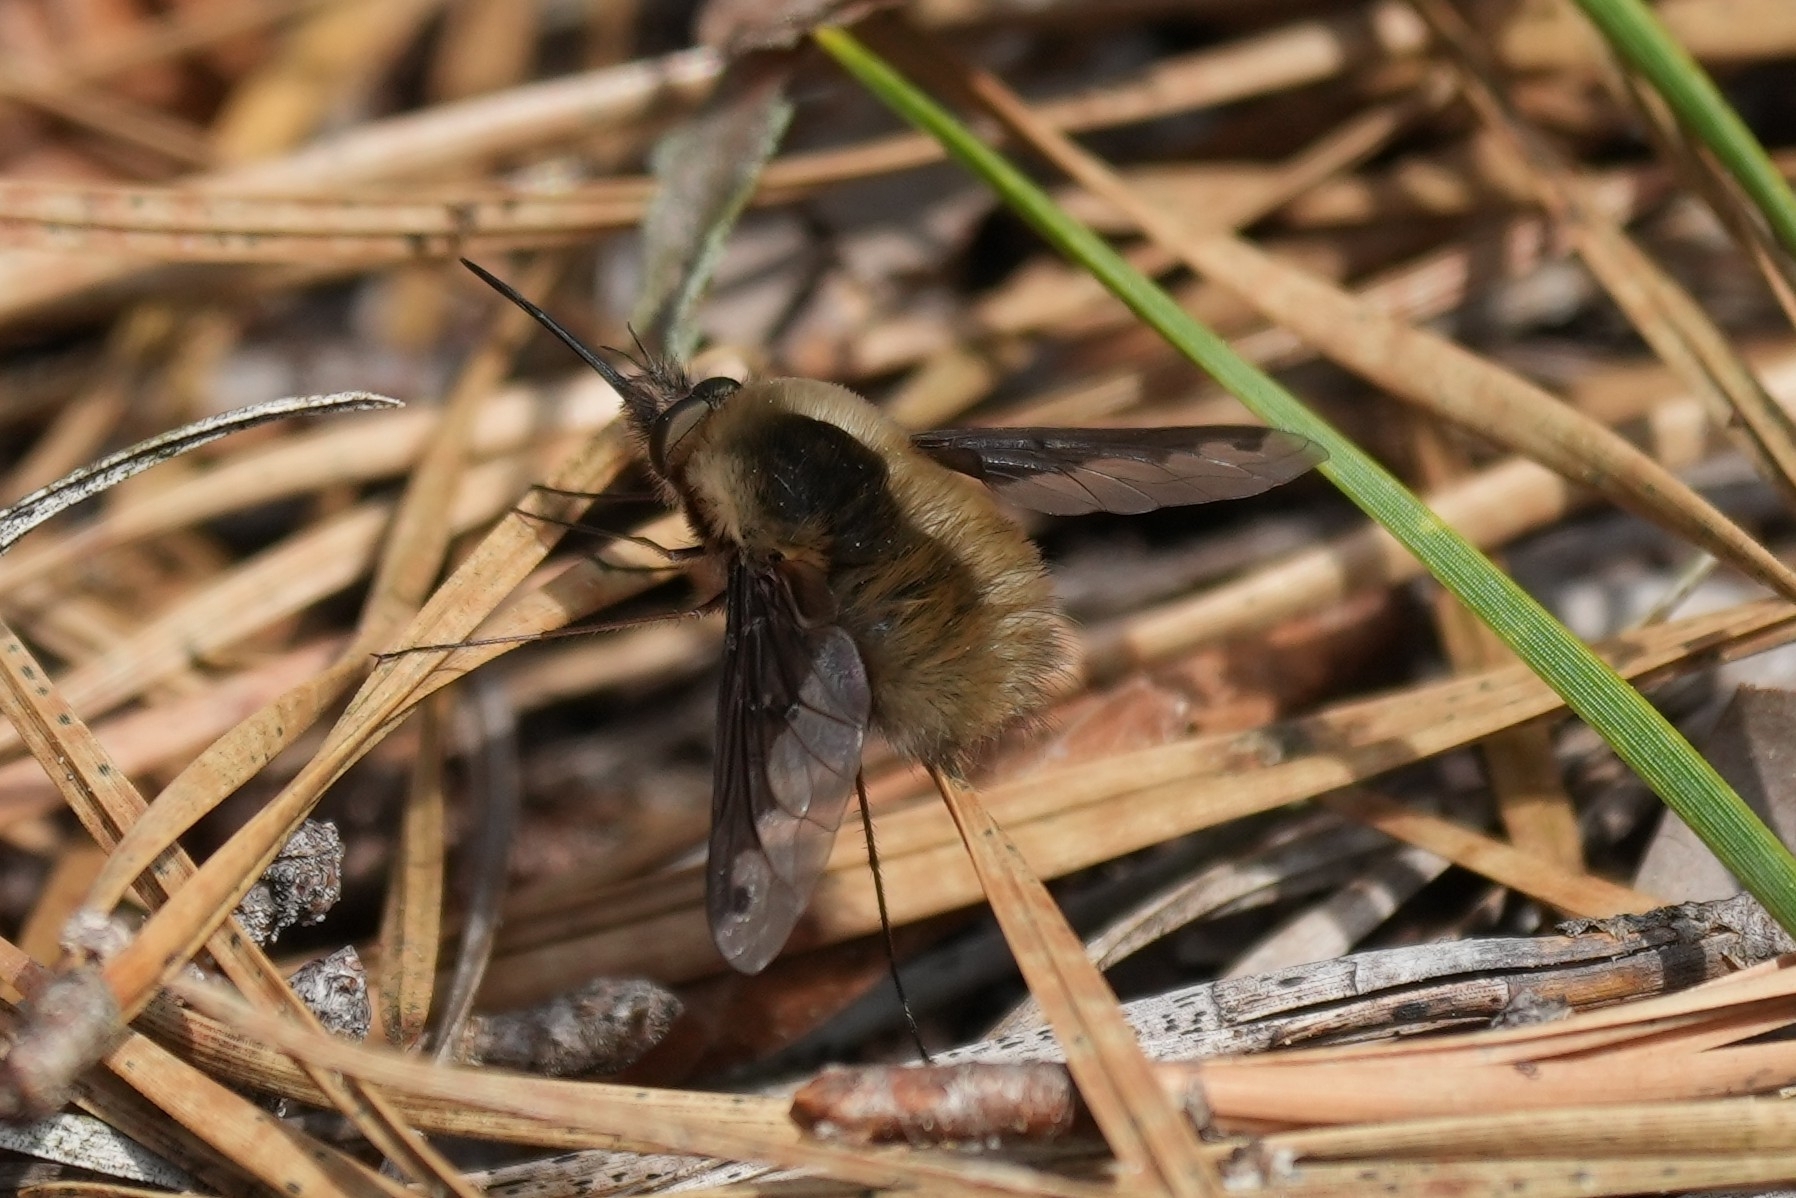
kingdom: Animalia
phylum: Arthropoda
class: Insecta
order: Diptera
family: Bombyliidae
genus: Bombylius
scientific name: Bombylius major
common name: Bee fly
